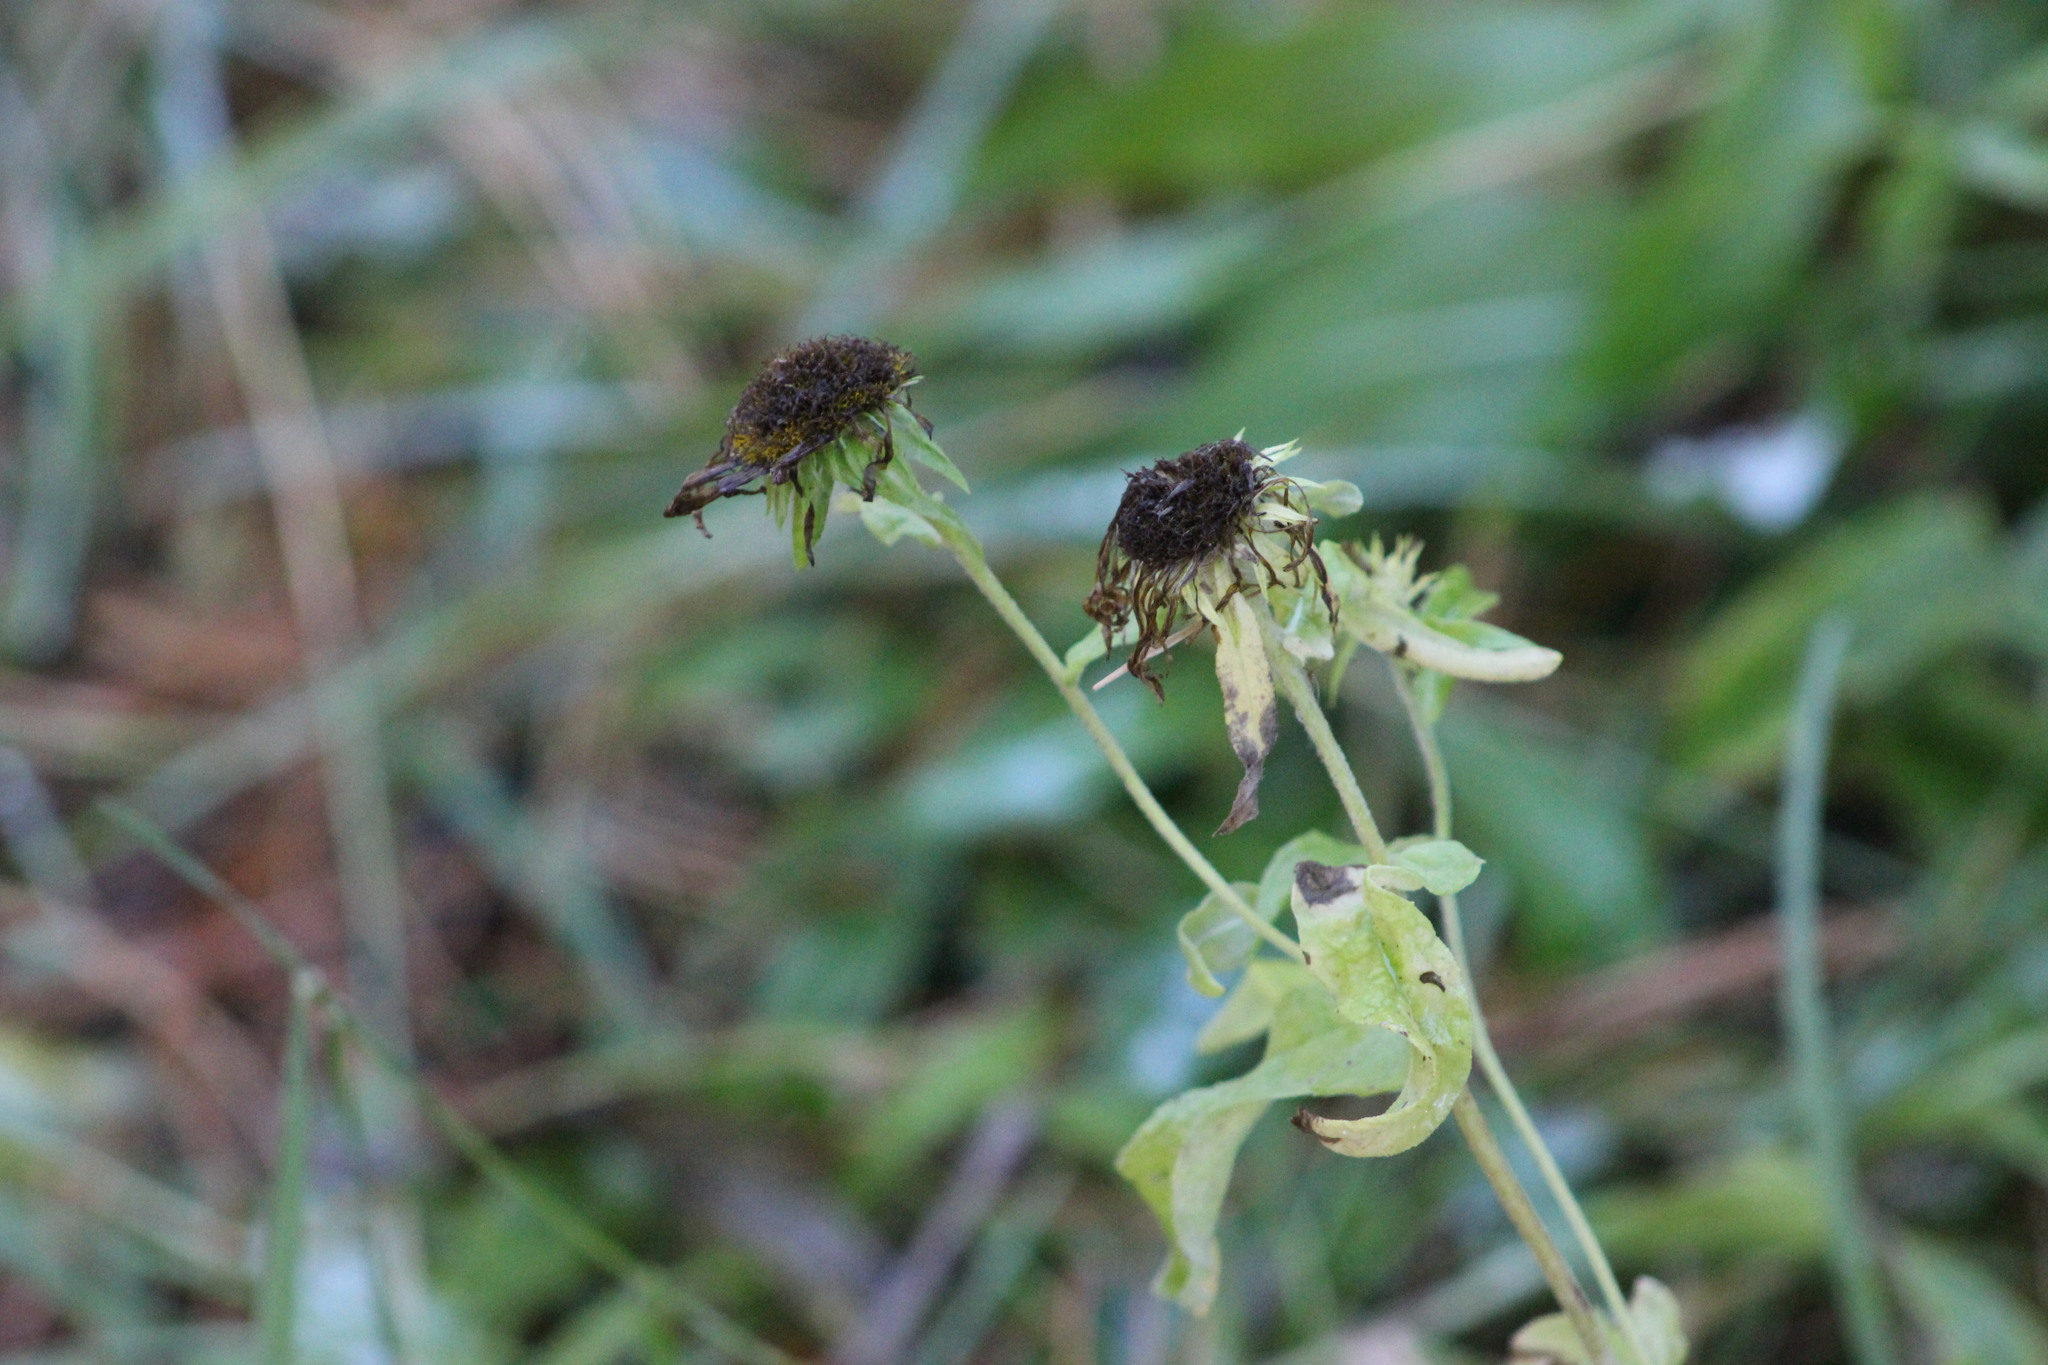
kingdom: Plantae
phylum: Tracheophyta
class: Magnoliopsida
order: Asterales
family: Asteraceae
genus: Pentanema
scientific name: Pentanema britannicum
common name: British elecampane
